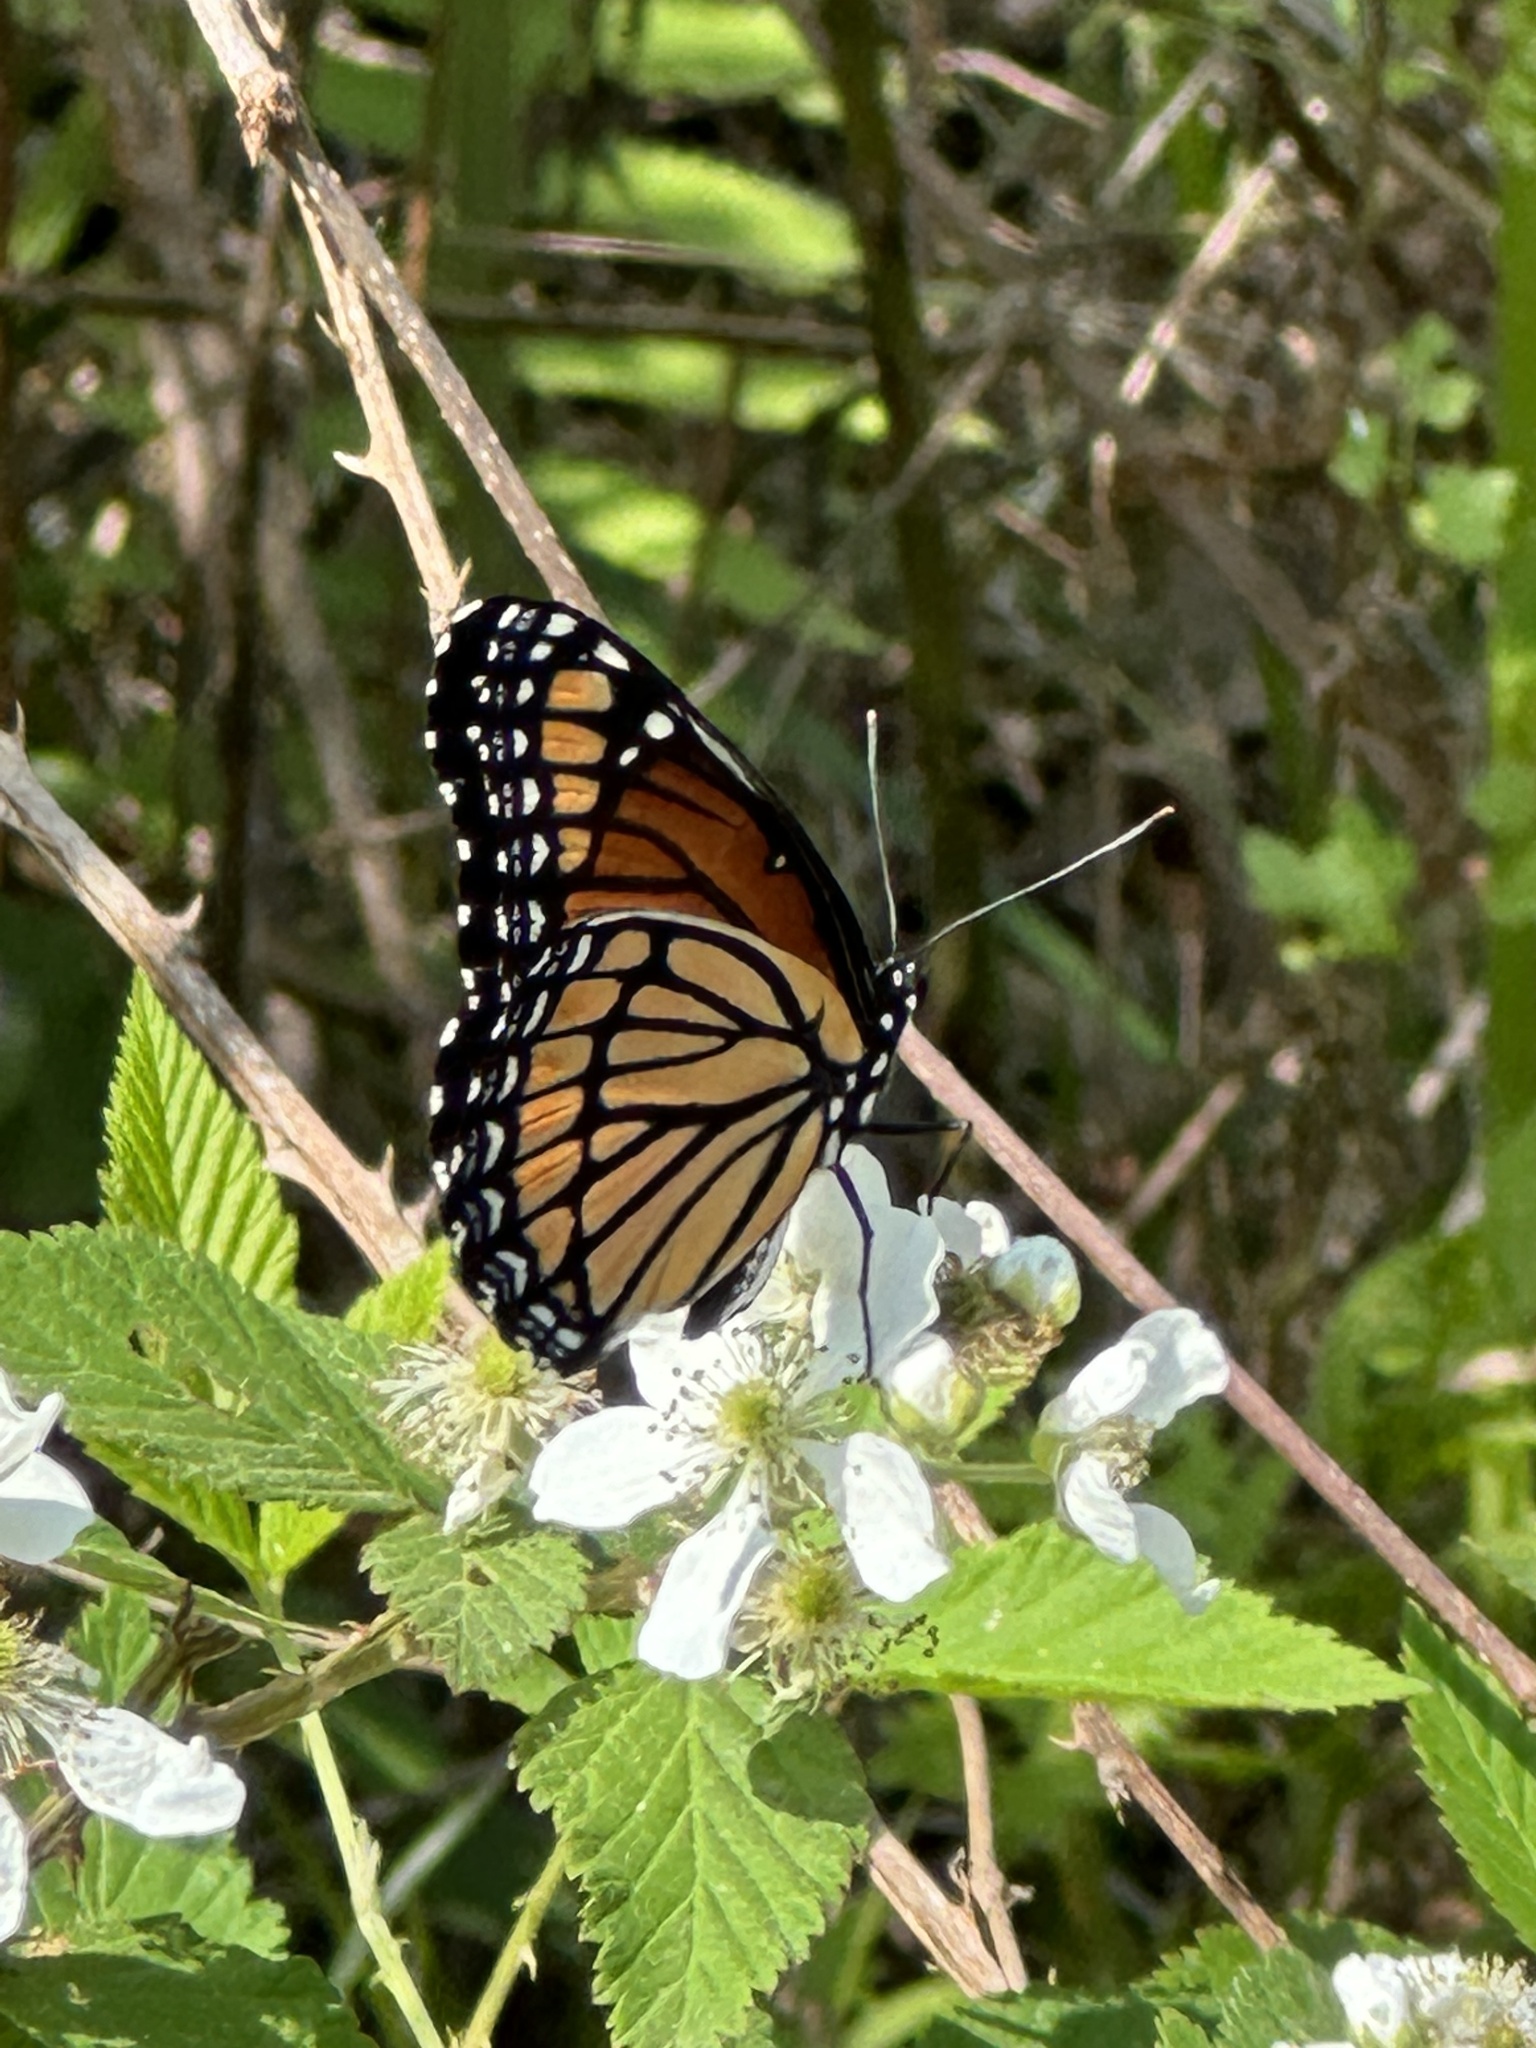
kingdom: Animalia
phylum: Arthropoda
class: Insecta
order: Lepidoptera
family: Nymphalidae
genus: Limenitis
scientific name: Limenitis archippus
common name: Viceroy
